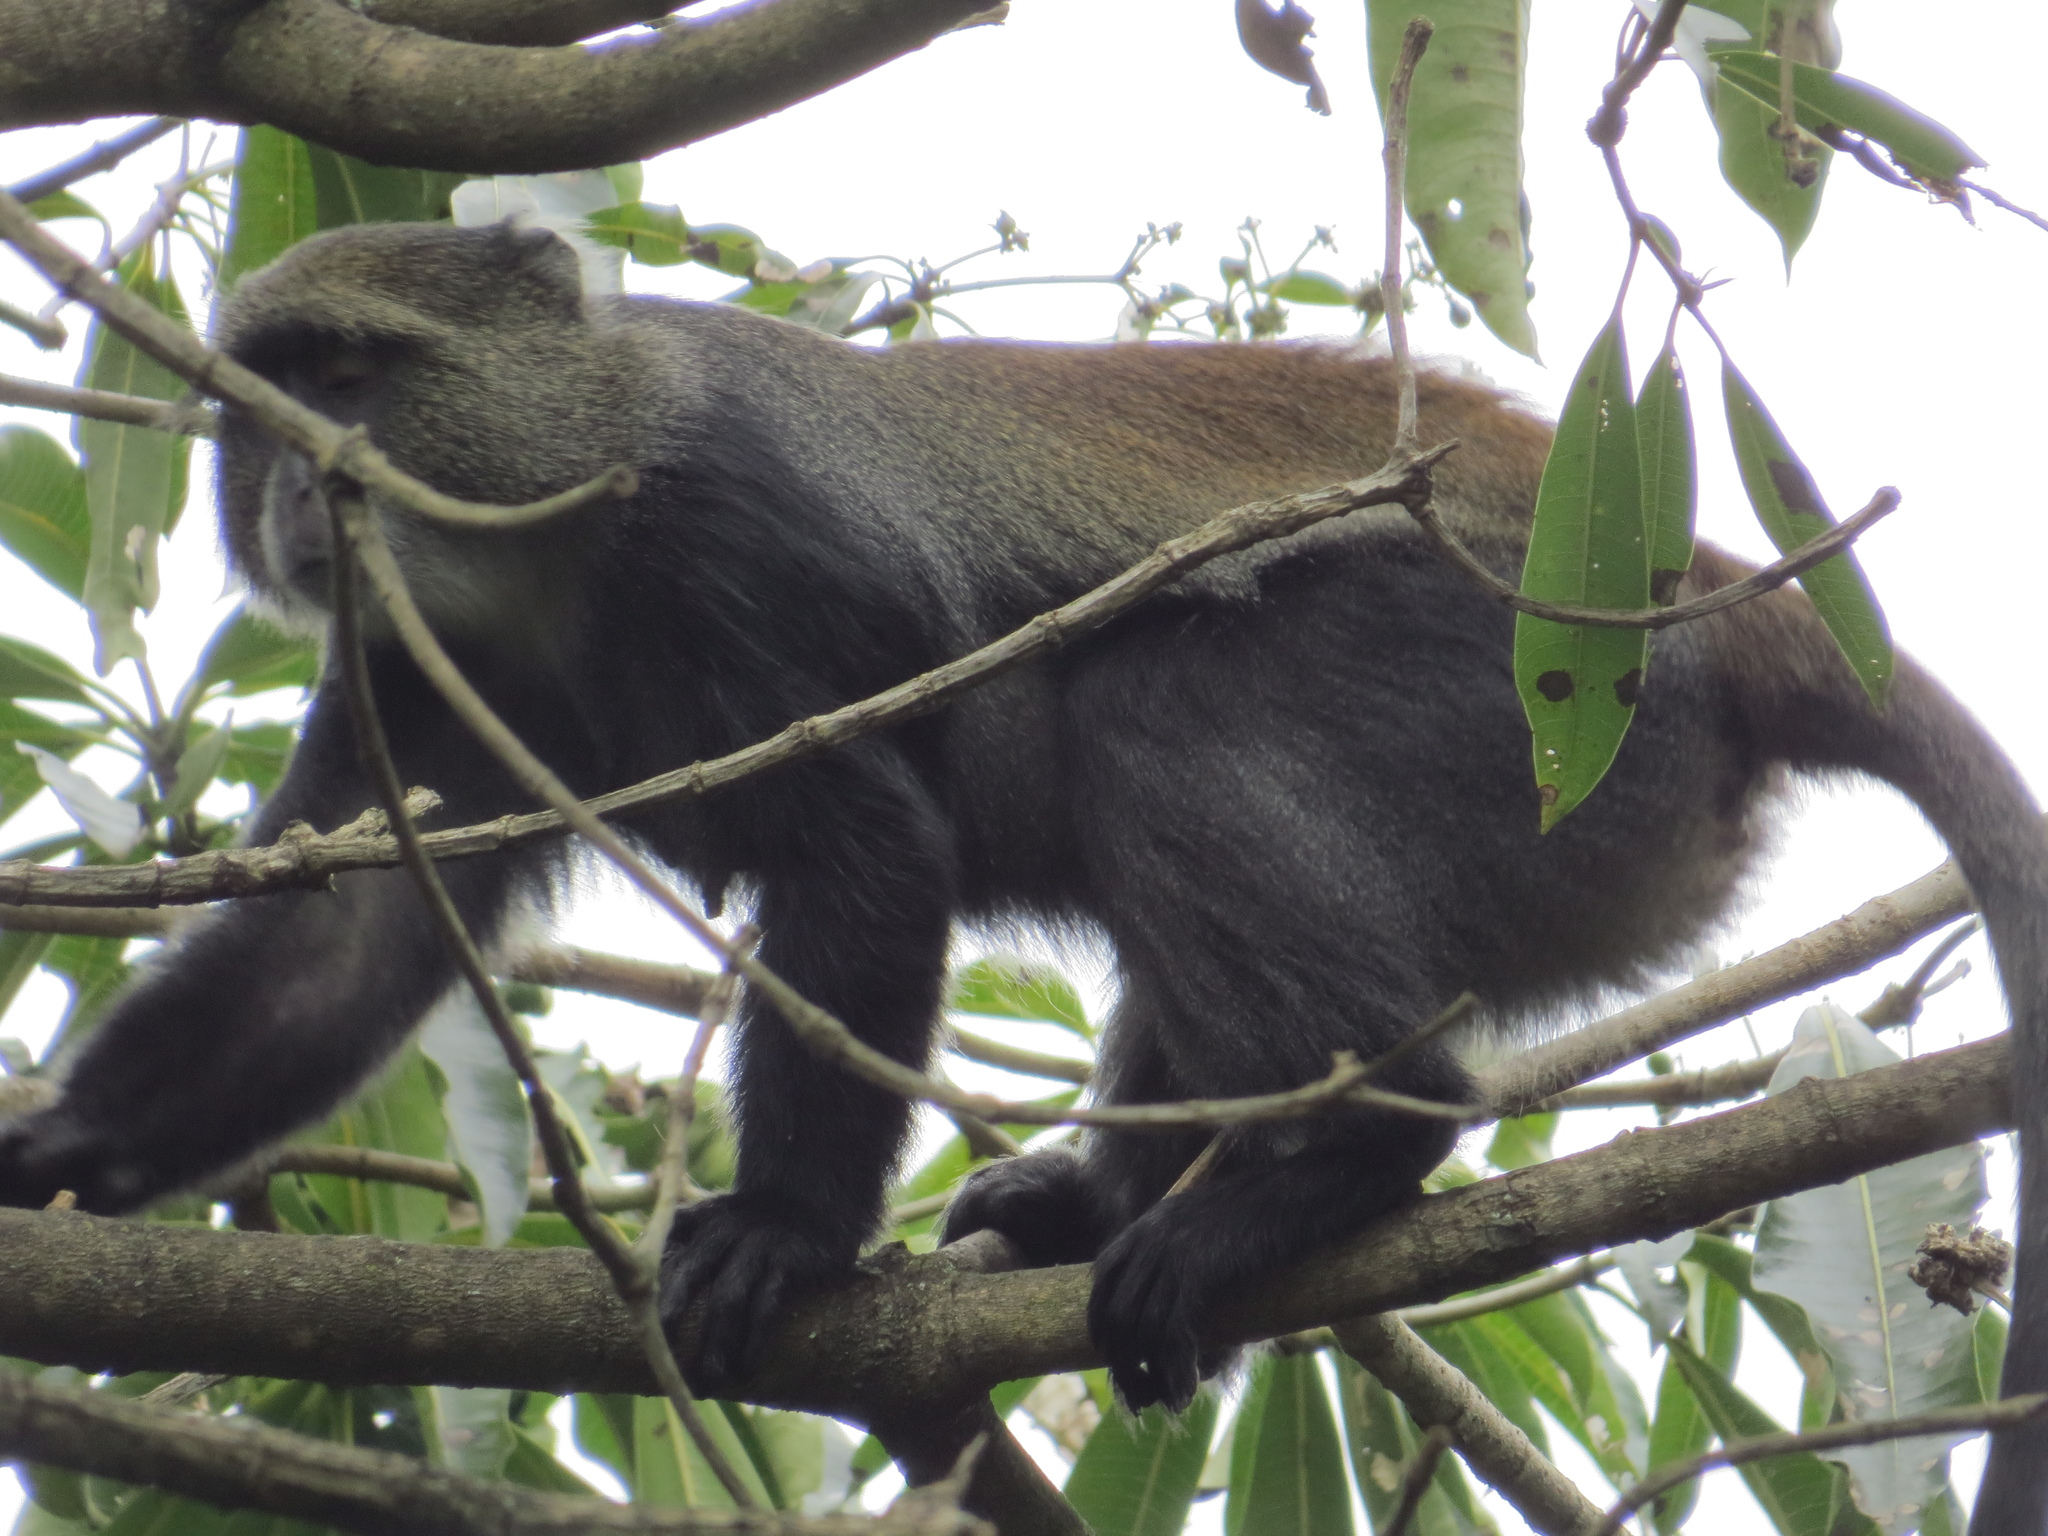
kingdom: Animalia
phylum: Chordata
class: Mammalia
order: Primates
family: Cercopithecidae
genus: Cercopithecus
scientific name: Cercopithecus mitis
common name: Blue monkey
